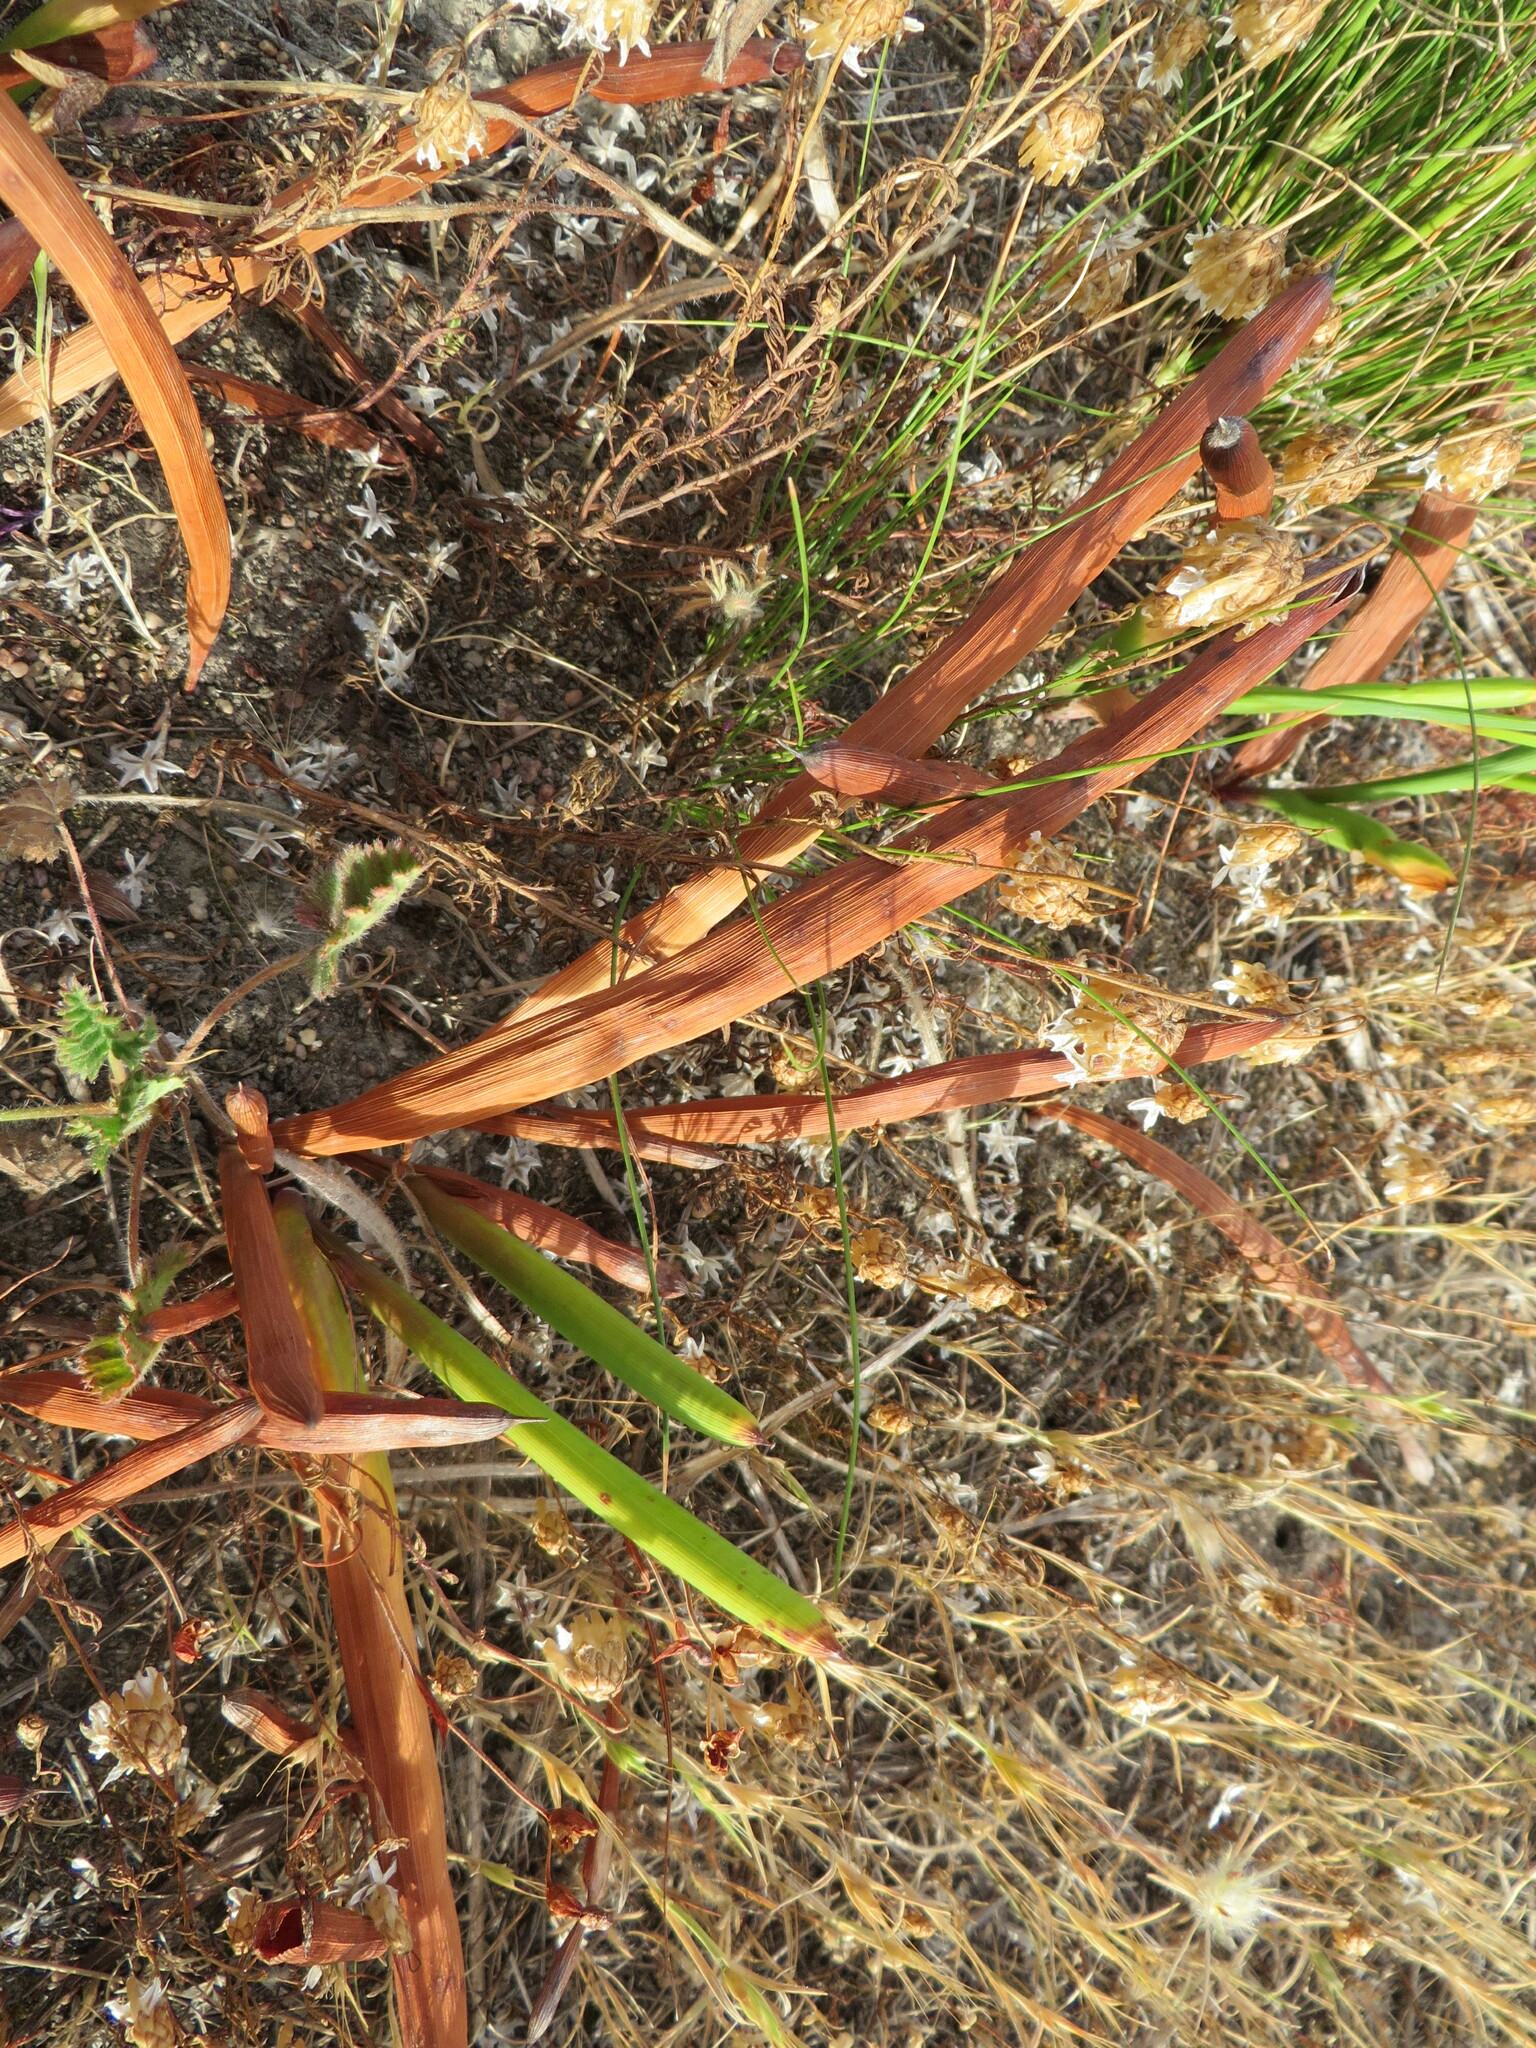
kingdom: Plantae
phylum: Tracheophyta
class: Liliopsida
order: Asparagales
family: Iridaceae
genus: Micranthus
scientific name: Micranthus tubulosus
